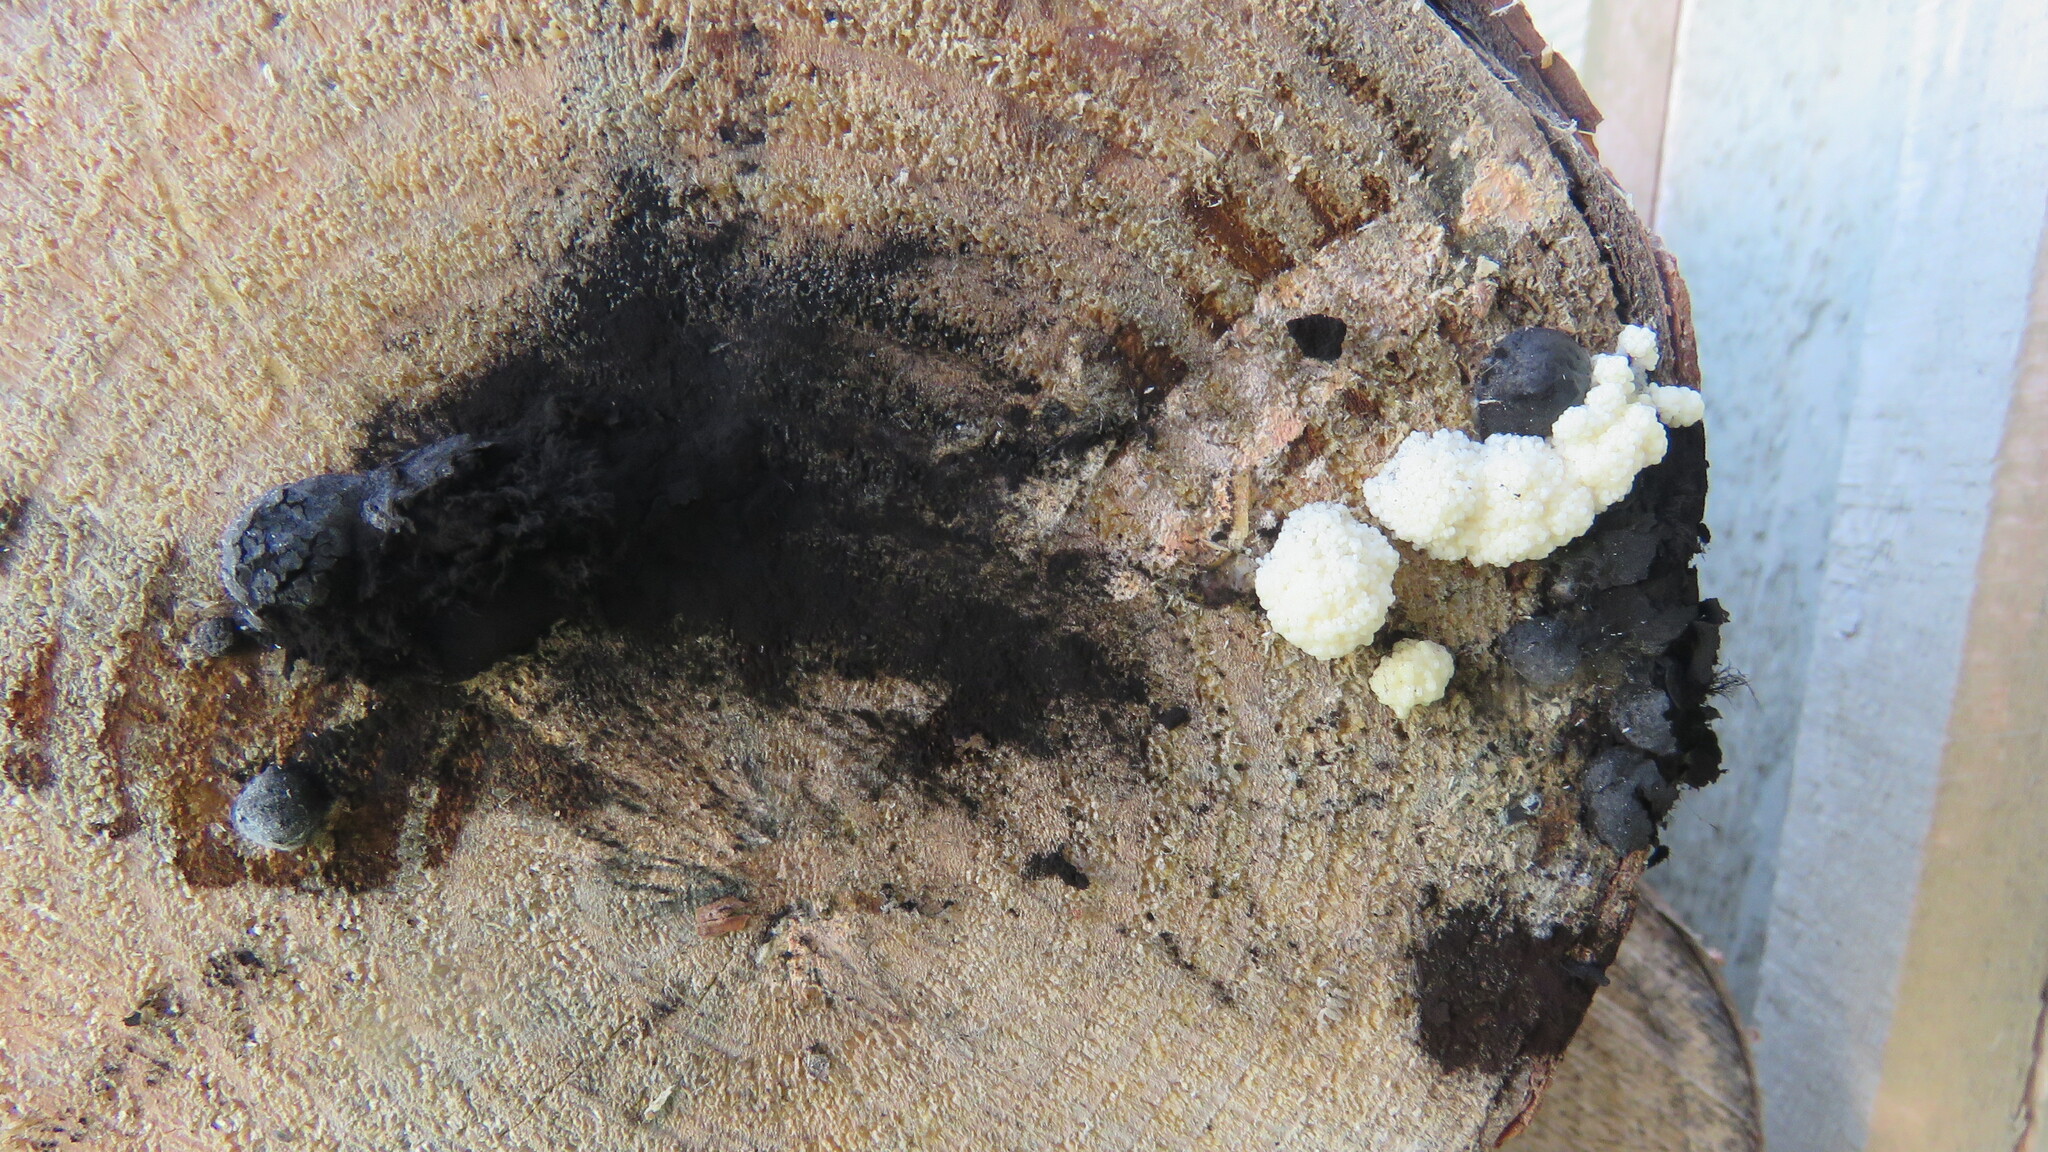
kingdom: Fungi
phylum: Ascomycota
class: Sordariomycetes
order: Xylariales
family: Hypoxylaceae
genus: Daldinia
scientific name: Daldinia childiae
